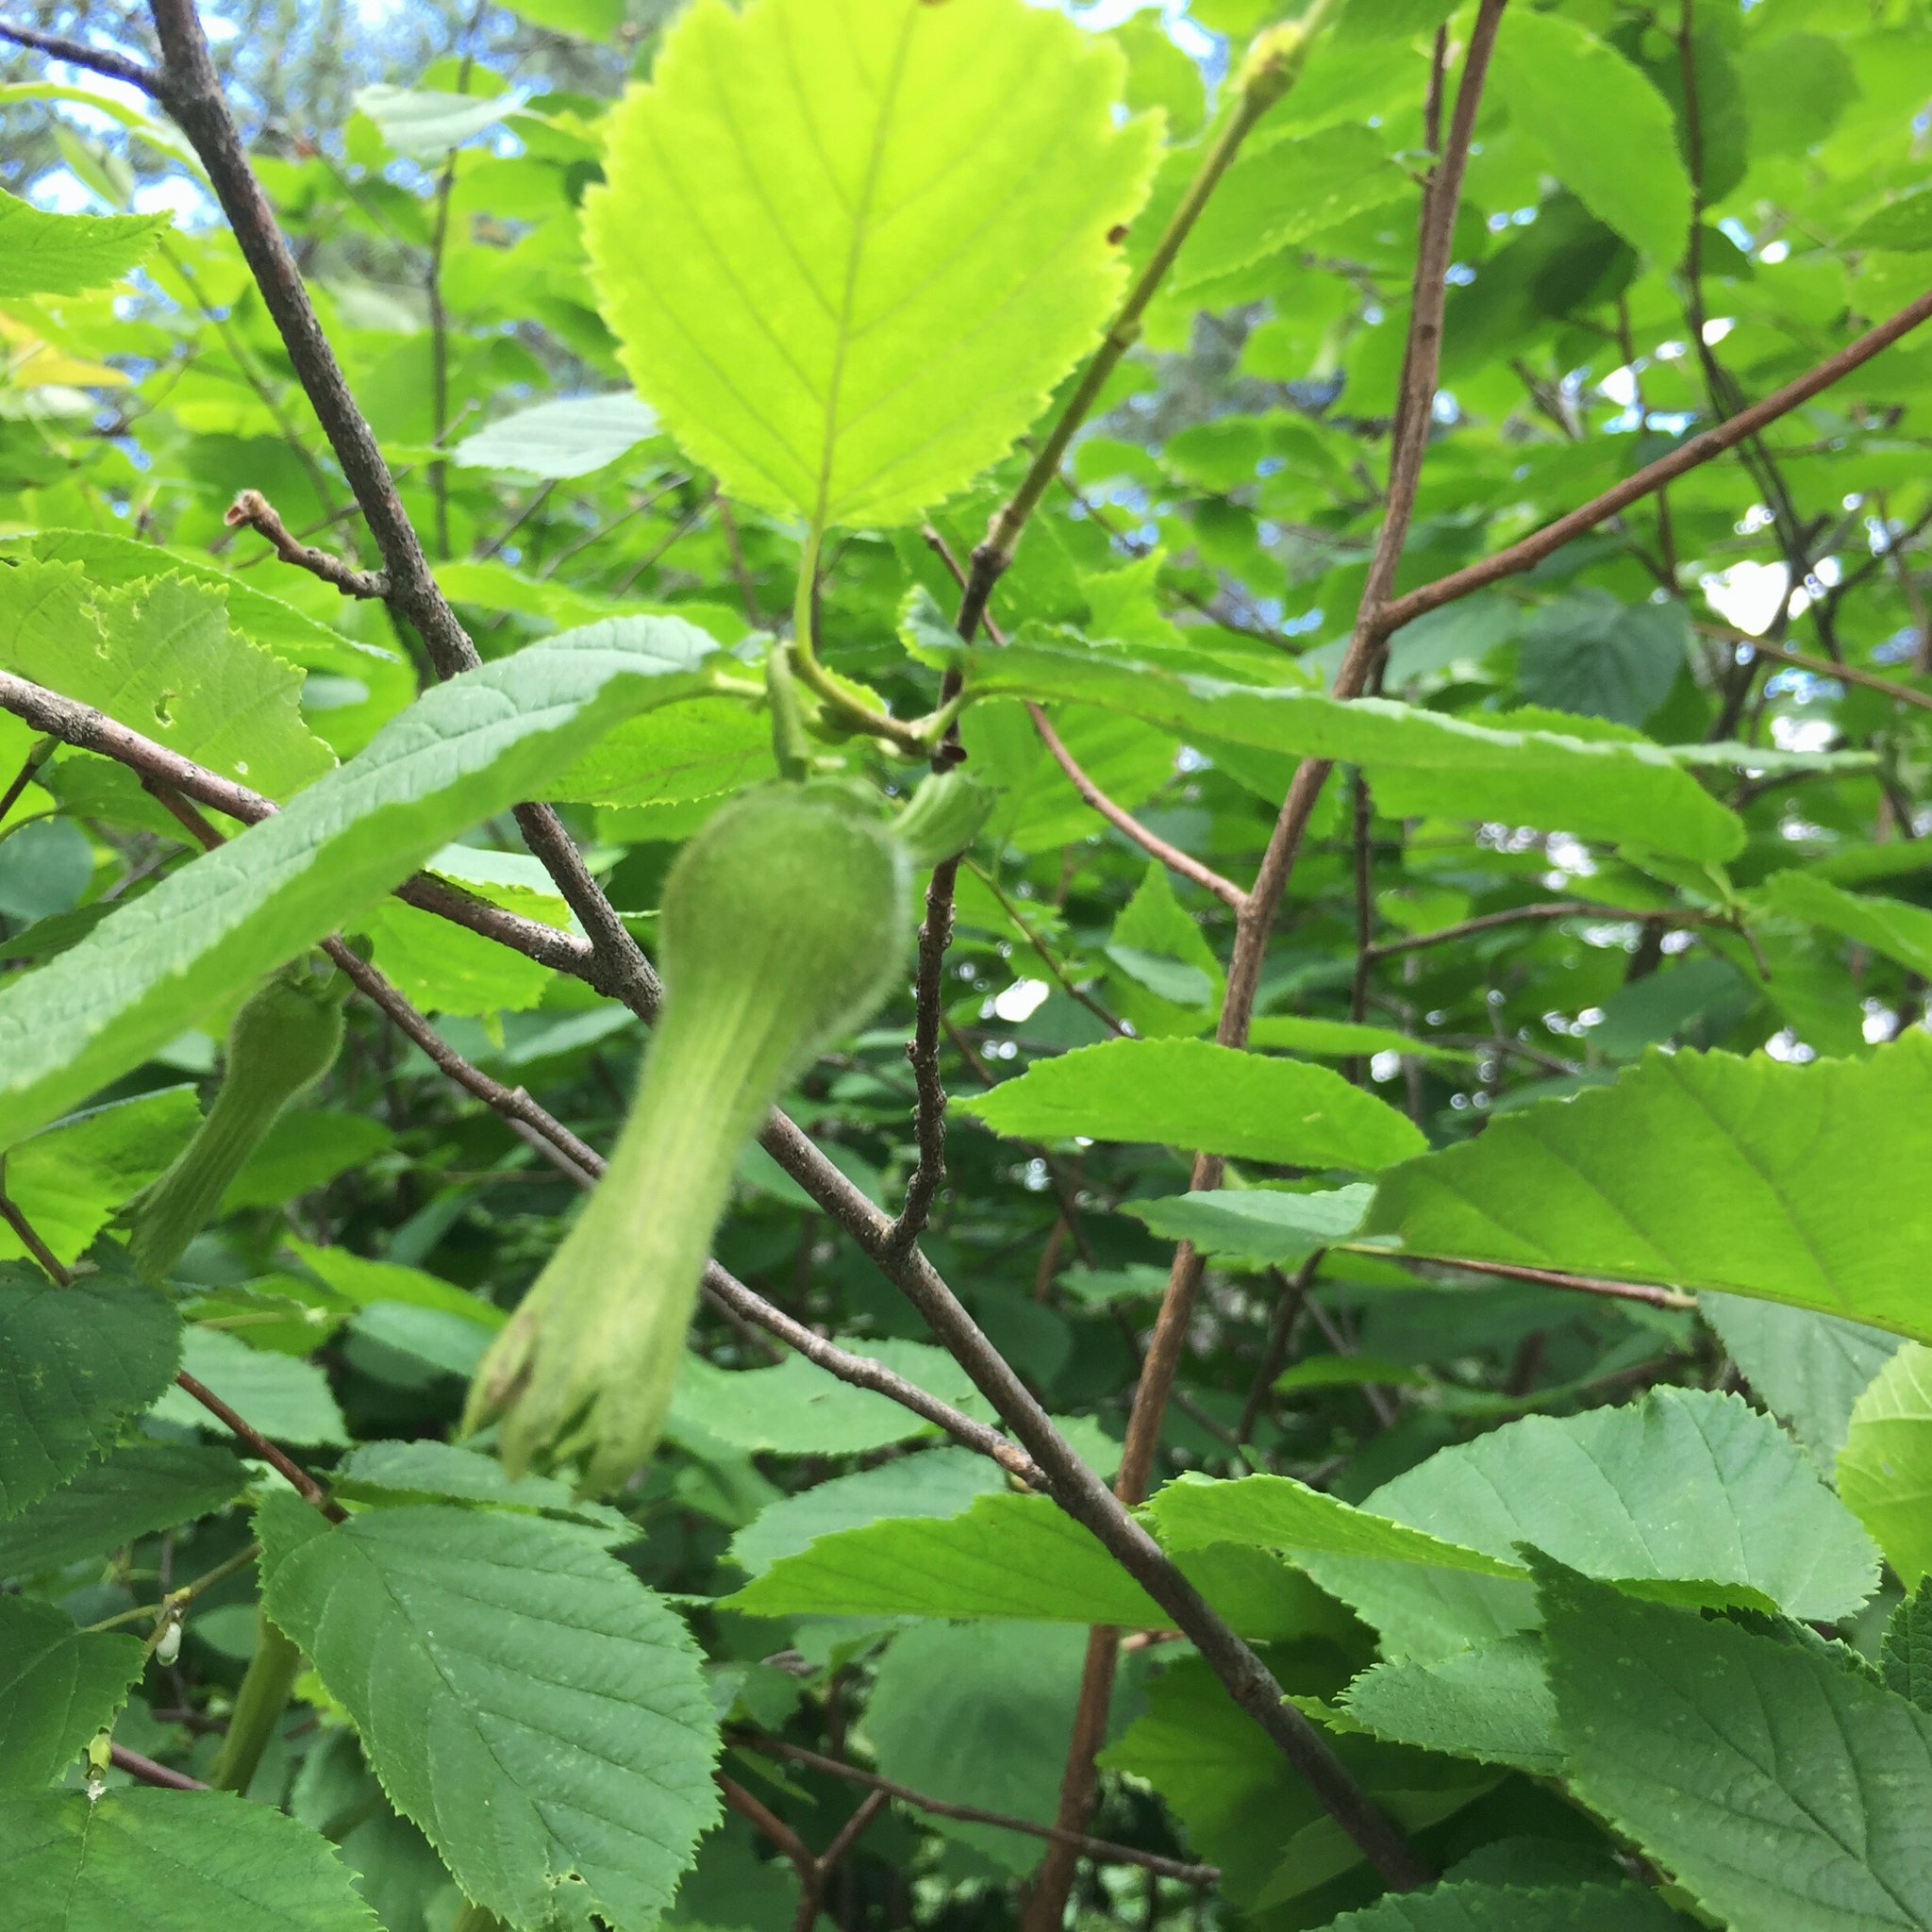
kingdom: Plantae
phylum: Tracheophyta
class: Magnoliopsida
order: Fagales
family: Betulaceae
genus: Corylus
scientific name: Corylus cornuta
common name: Beaked hazel
